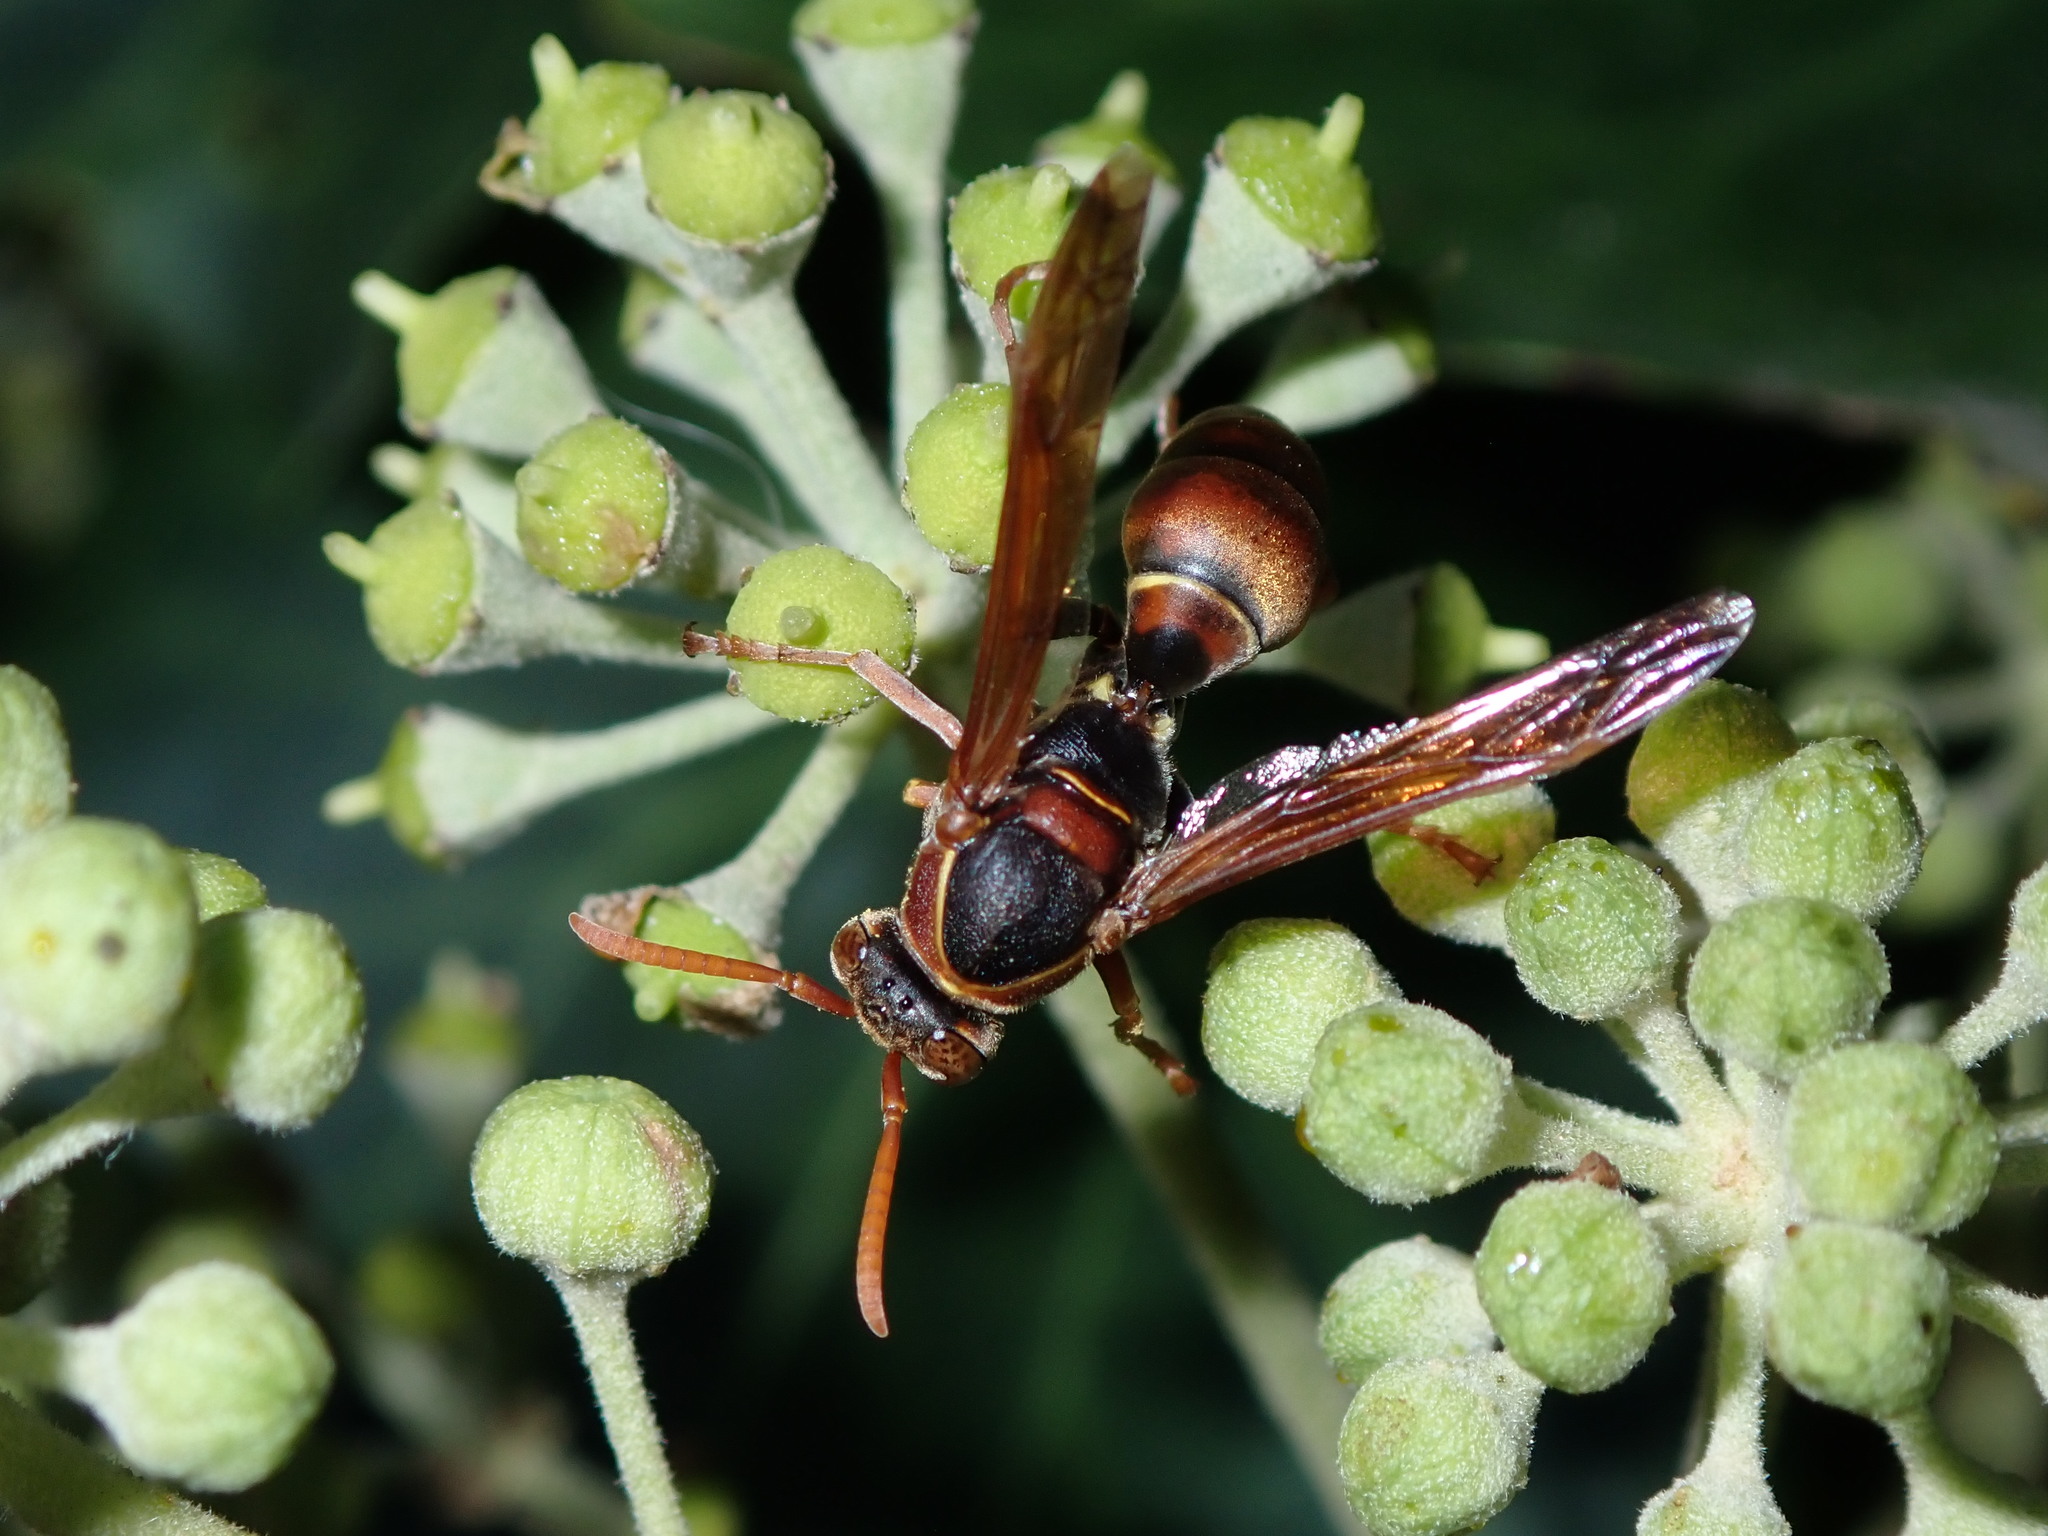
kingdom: Animalia
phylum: Arthropoda
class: Insecta
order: Hymenoptera
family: Eumenidae
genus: Polistes
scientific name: Polistes humilis
